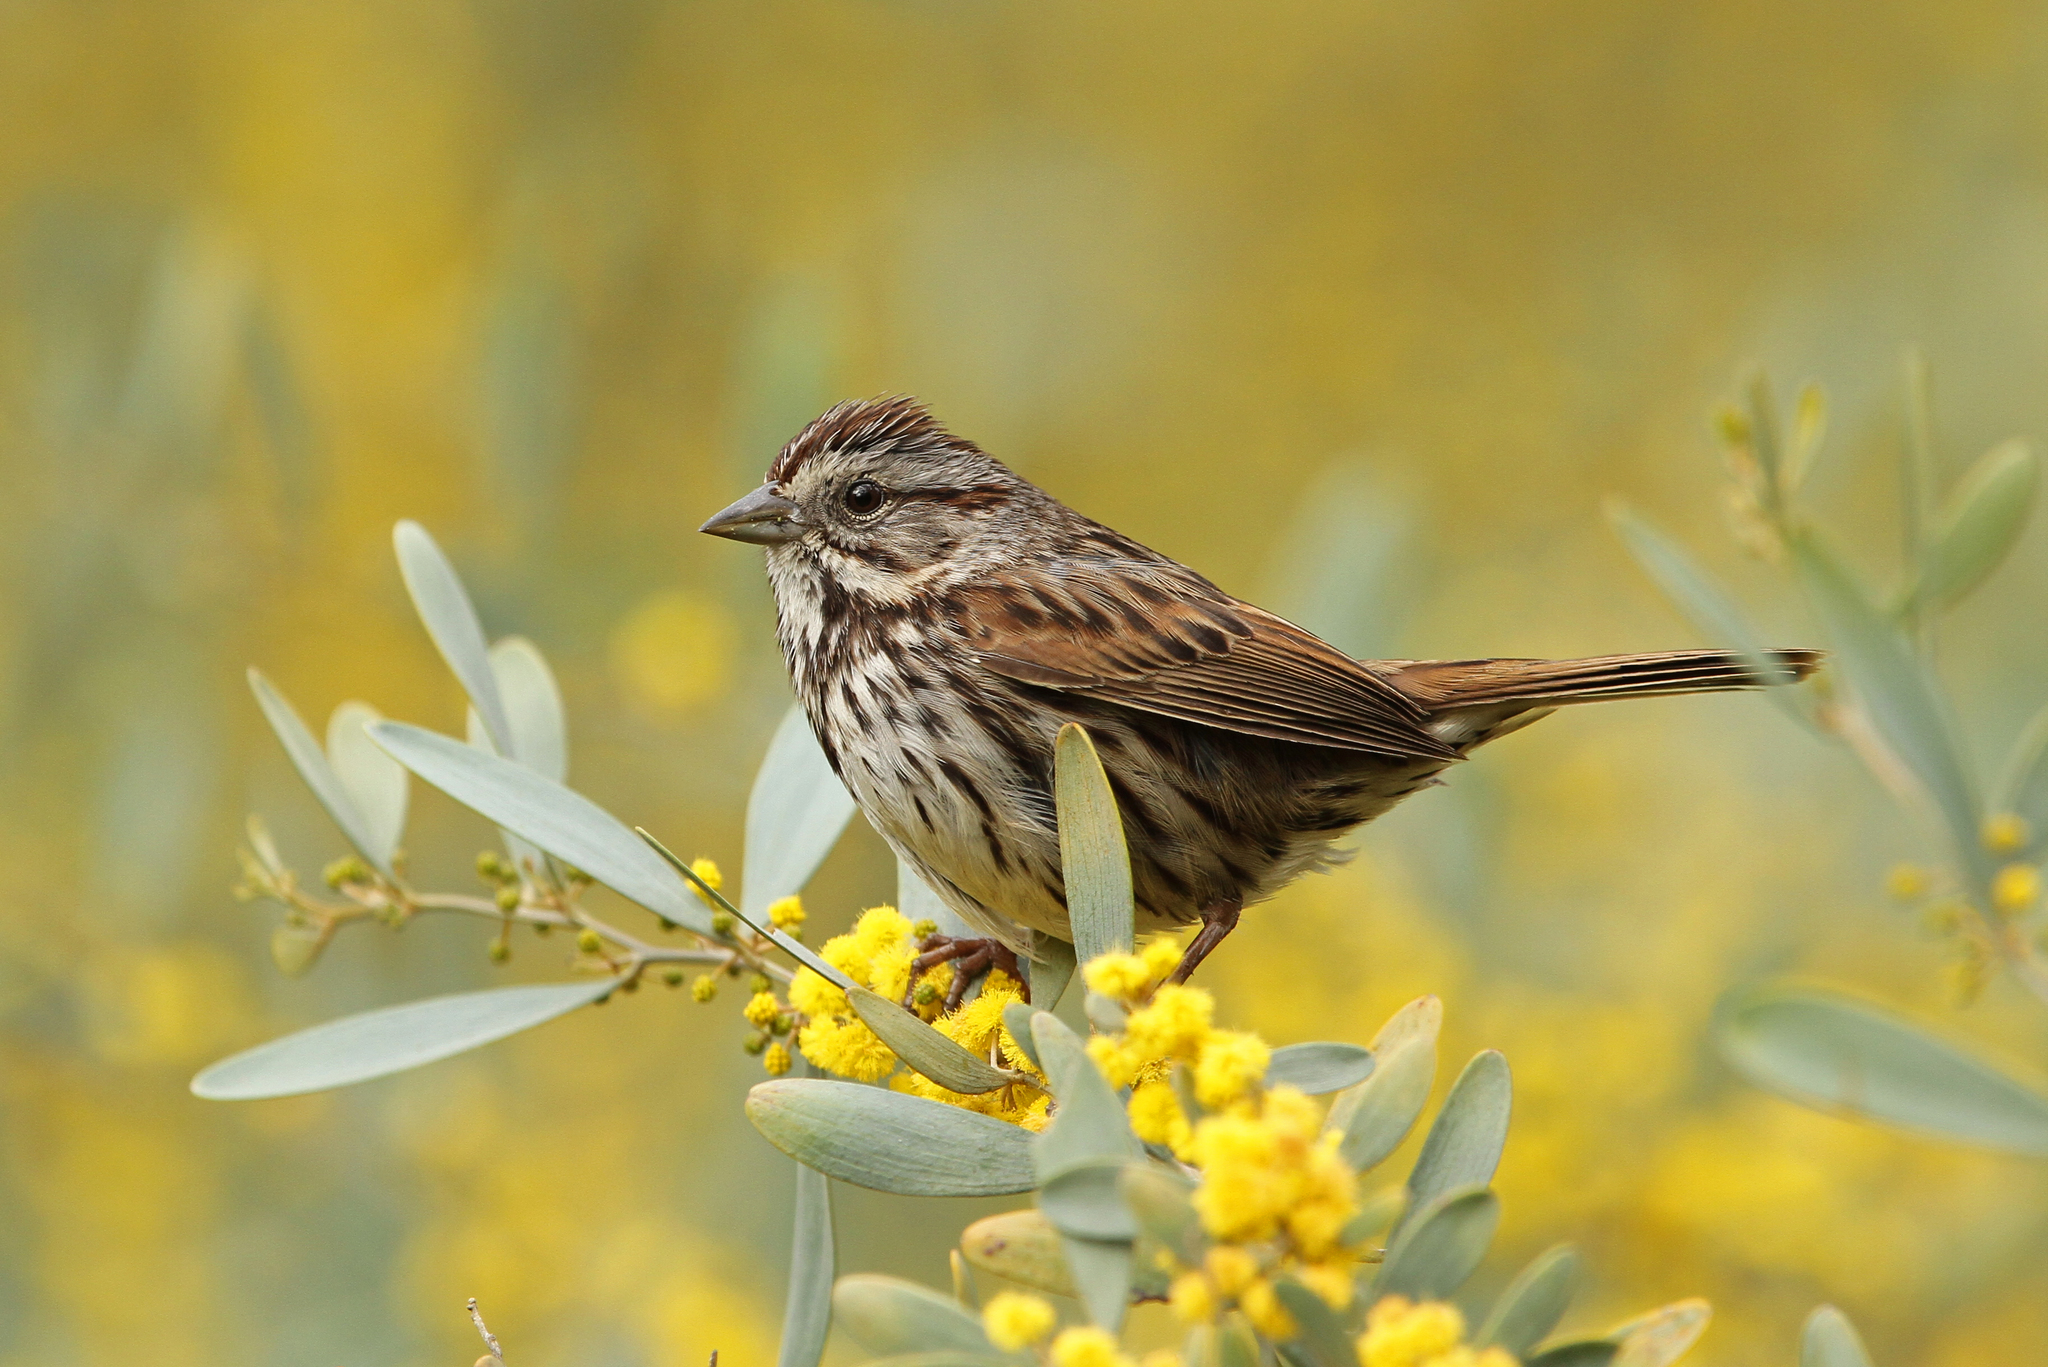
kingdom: Animalia
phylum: Chordata
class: Aves
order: Passeriformes
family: Passerellidae
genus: Melospiza
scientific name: Melospiza melodia
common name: Song sparrow
